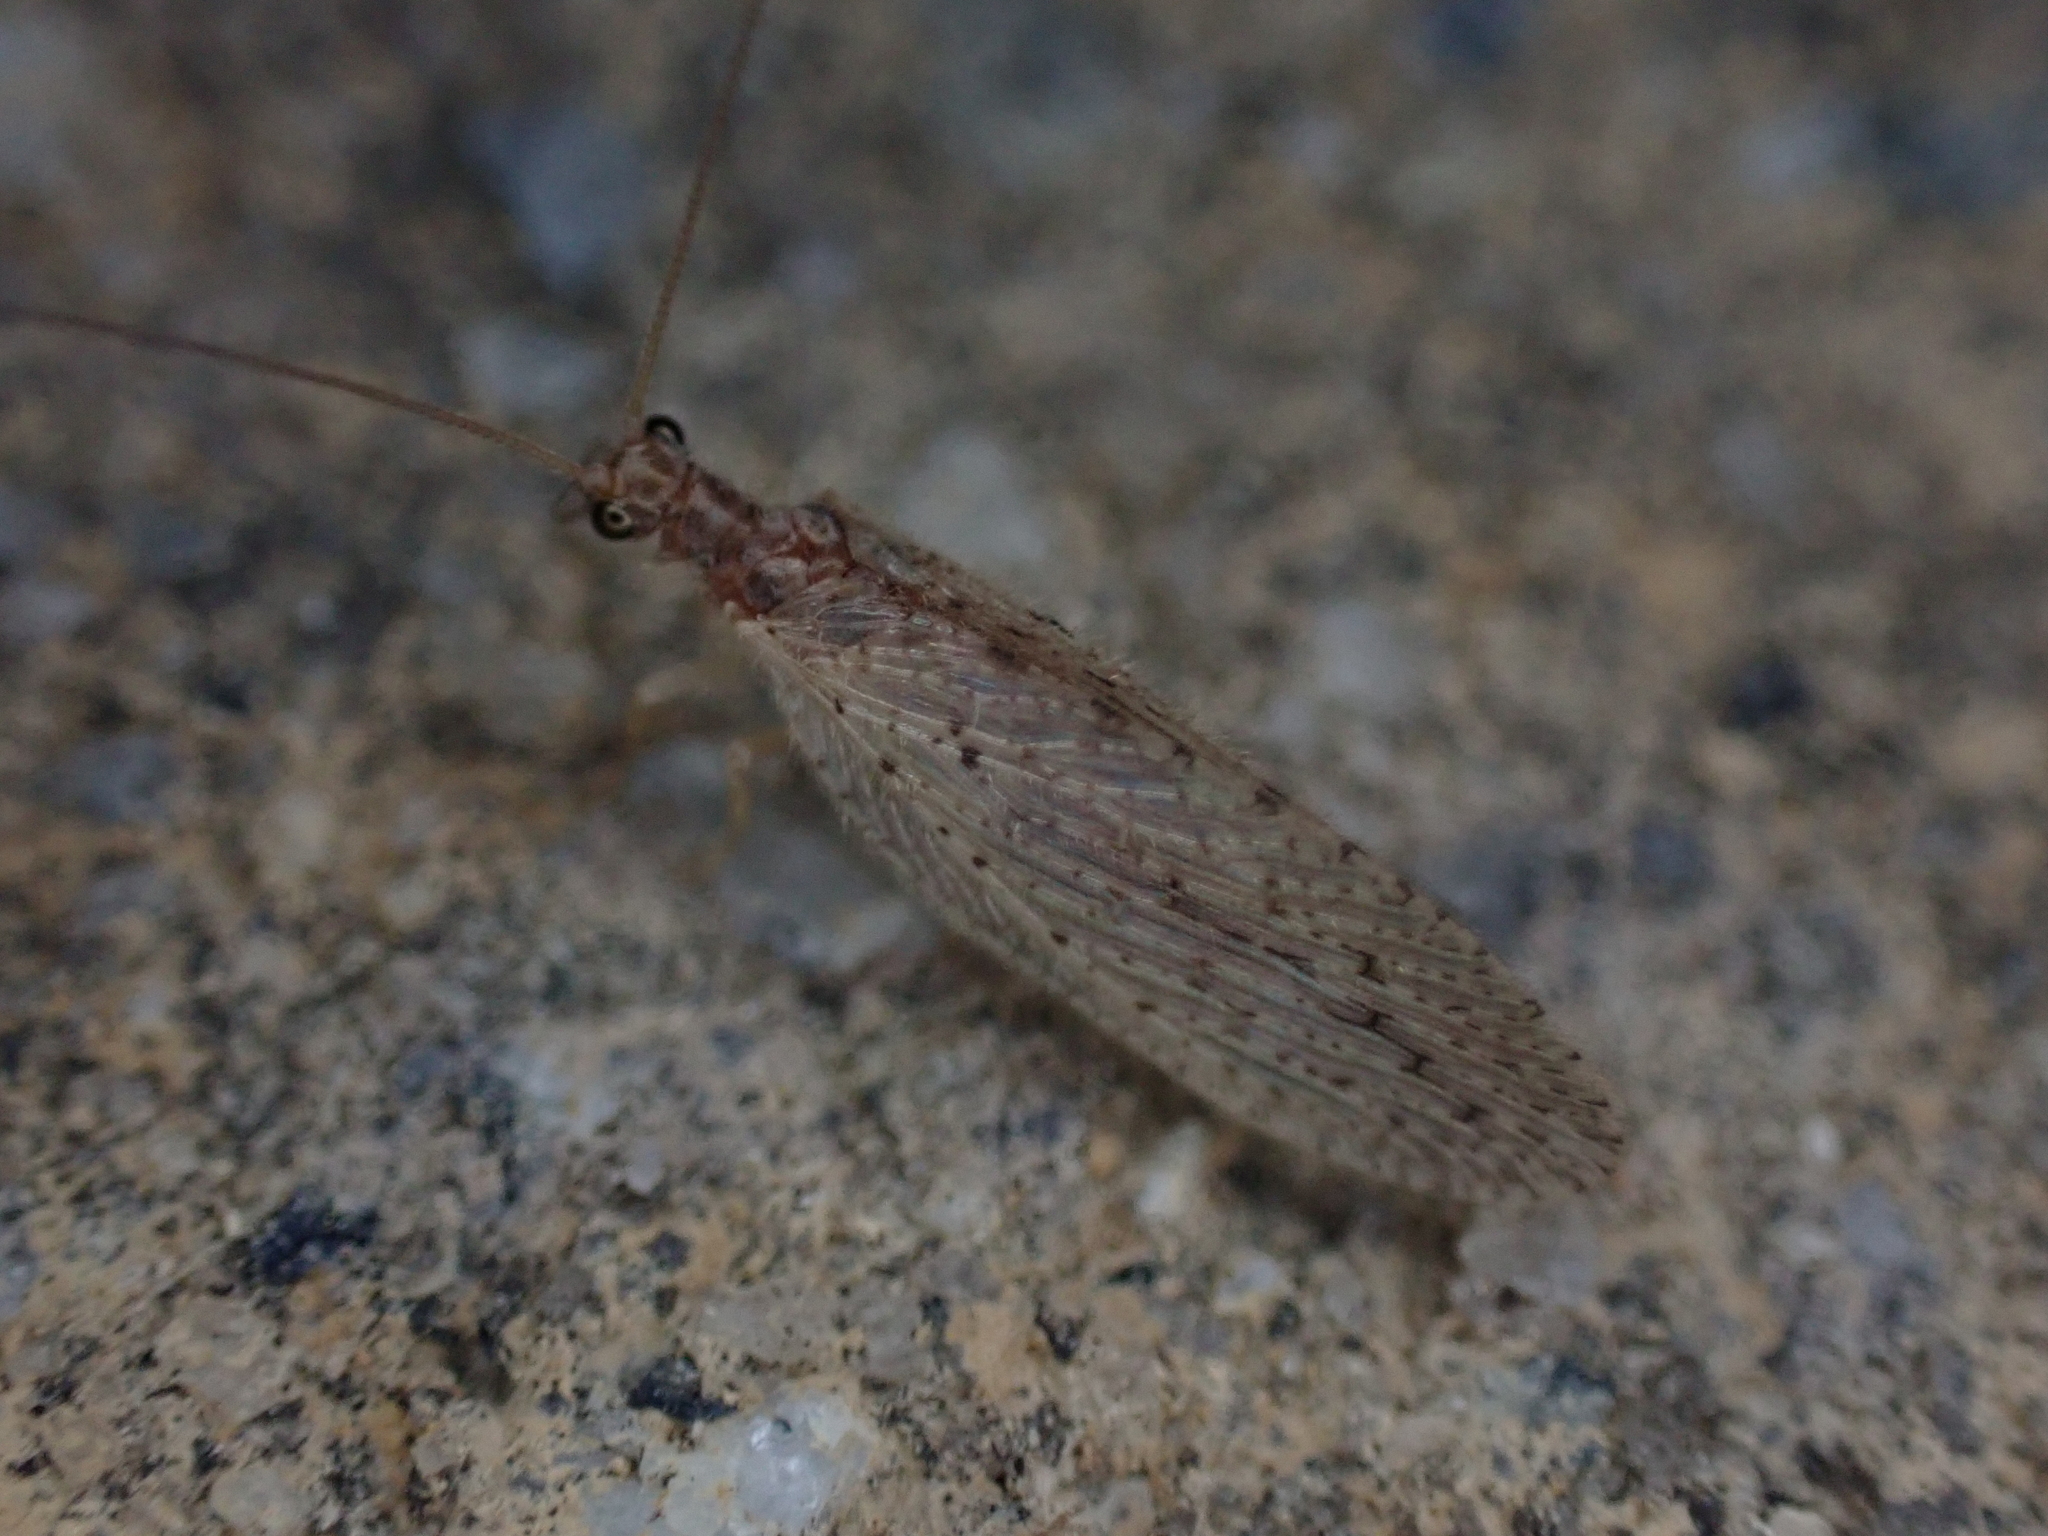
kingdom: Animalia
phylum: Arthropoda
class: Insecta
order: Neuroptera
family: Hemerobiidae
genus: Micromus
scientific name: Micromus subanticus
